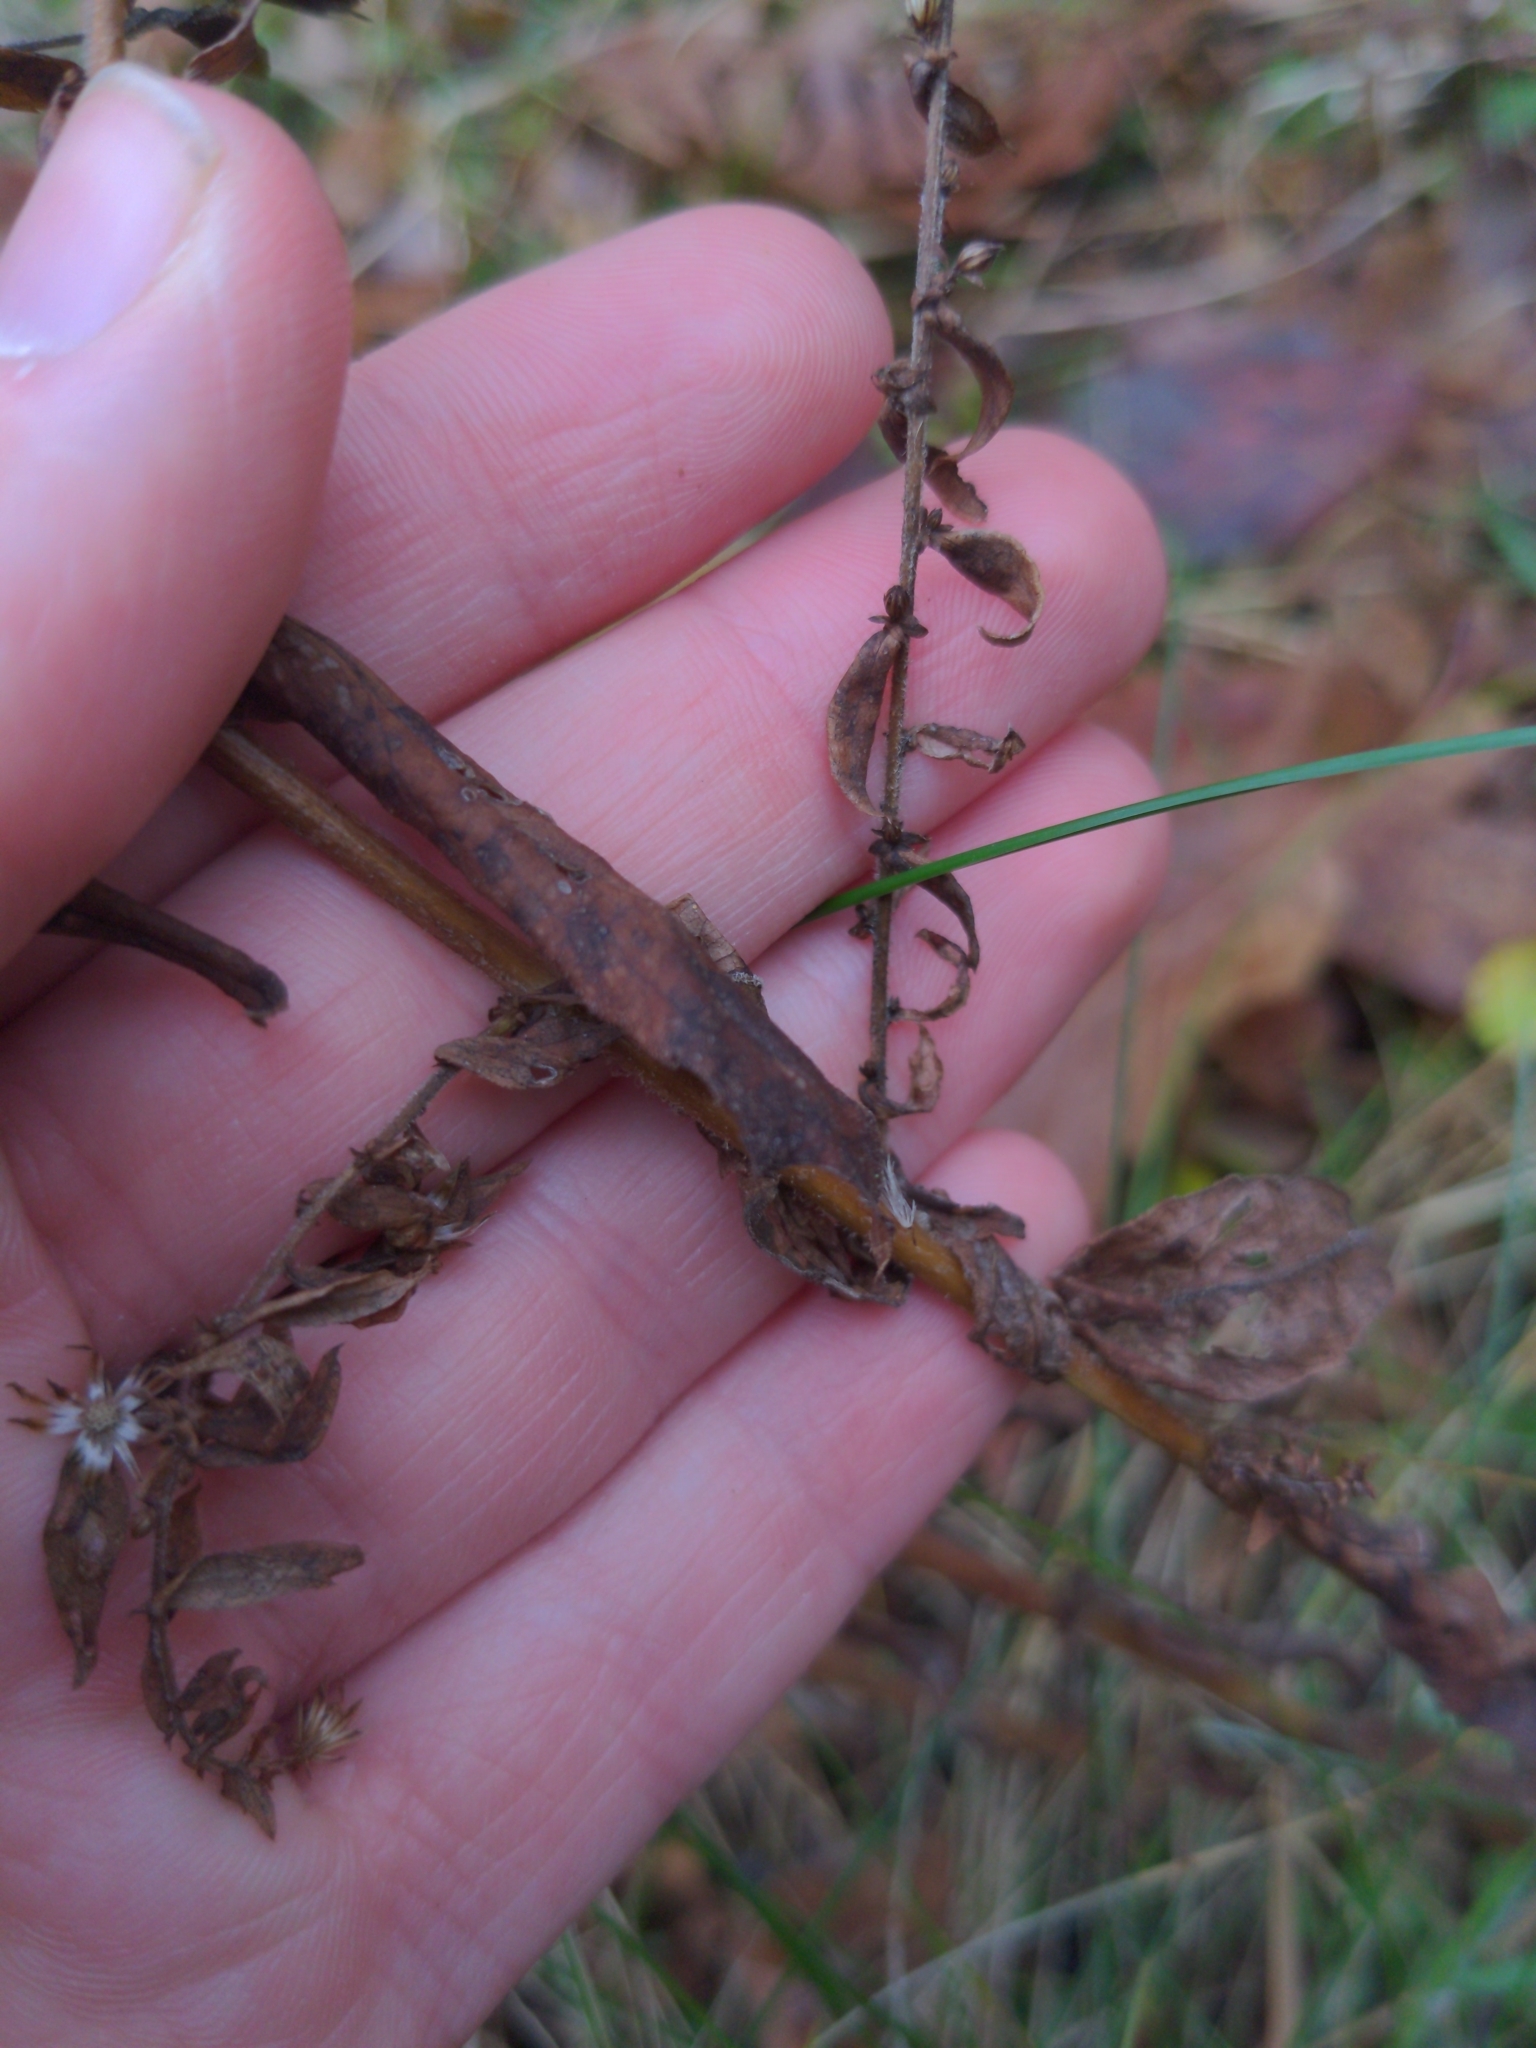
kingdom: Plantae
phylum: Tracheophyta
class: Magnoliopsida
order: Asterales
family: Asteraceae
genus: Symphyotrichum
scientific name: Symphyotrichum lateriflorum
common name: Calico aster
